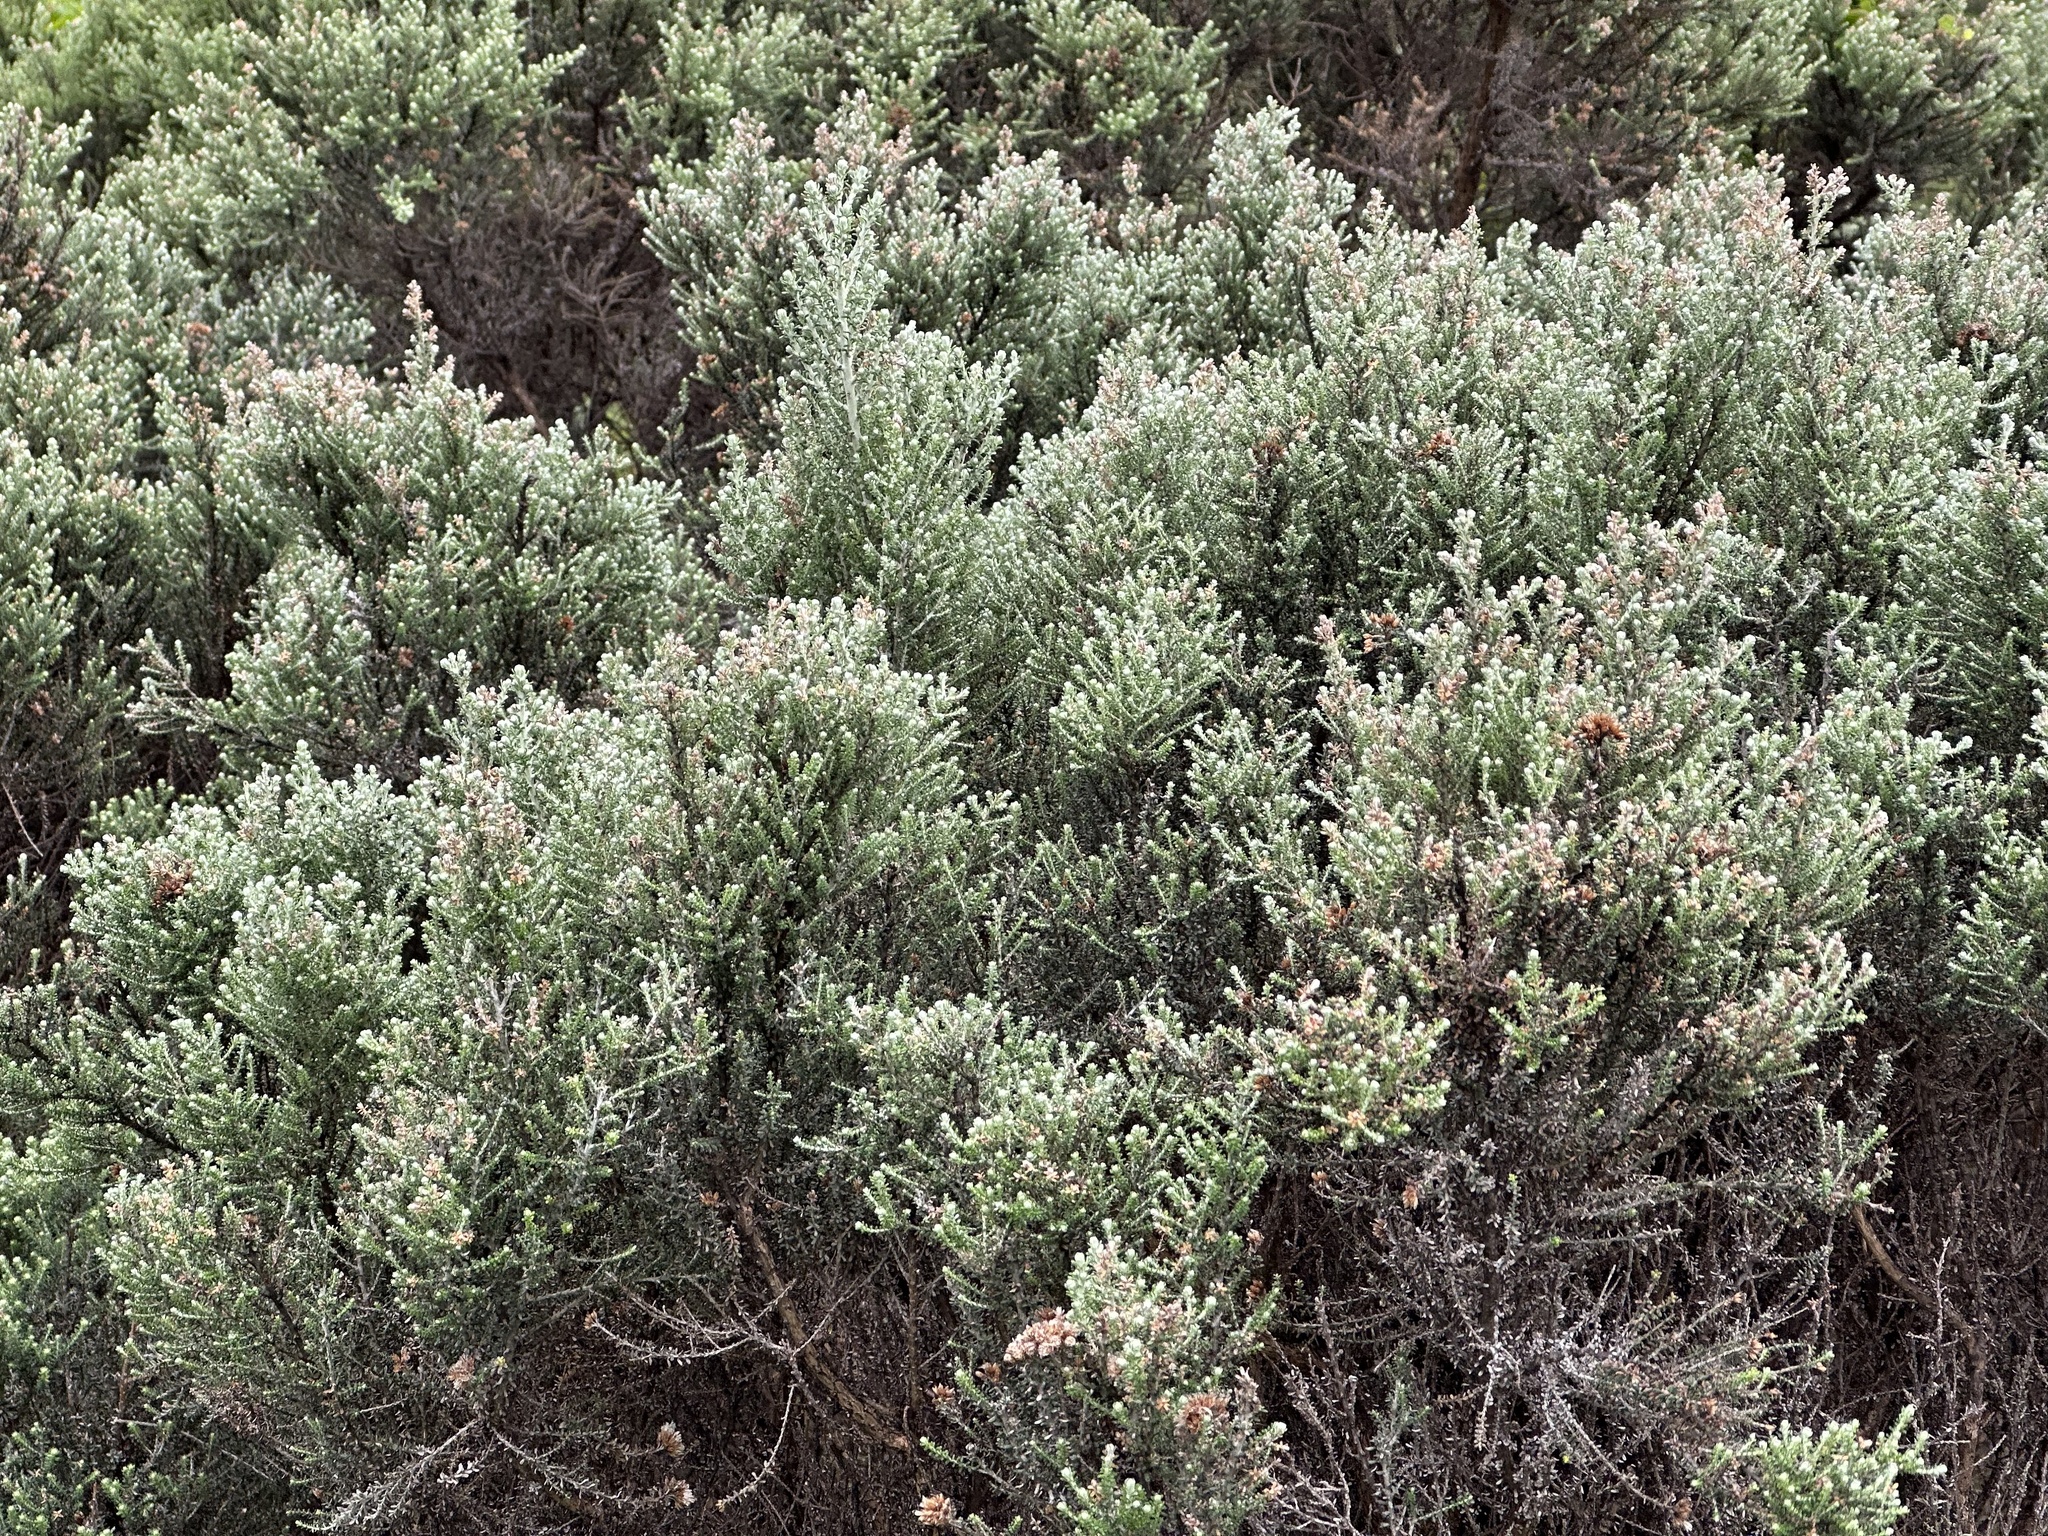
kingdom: Plantae
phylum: Tracheophyta
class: Magnoliopsida
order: Asterales
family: Asteraceae
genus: Ozothamnus
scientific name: Ozothamnus leptophyllus
